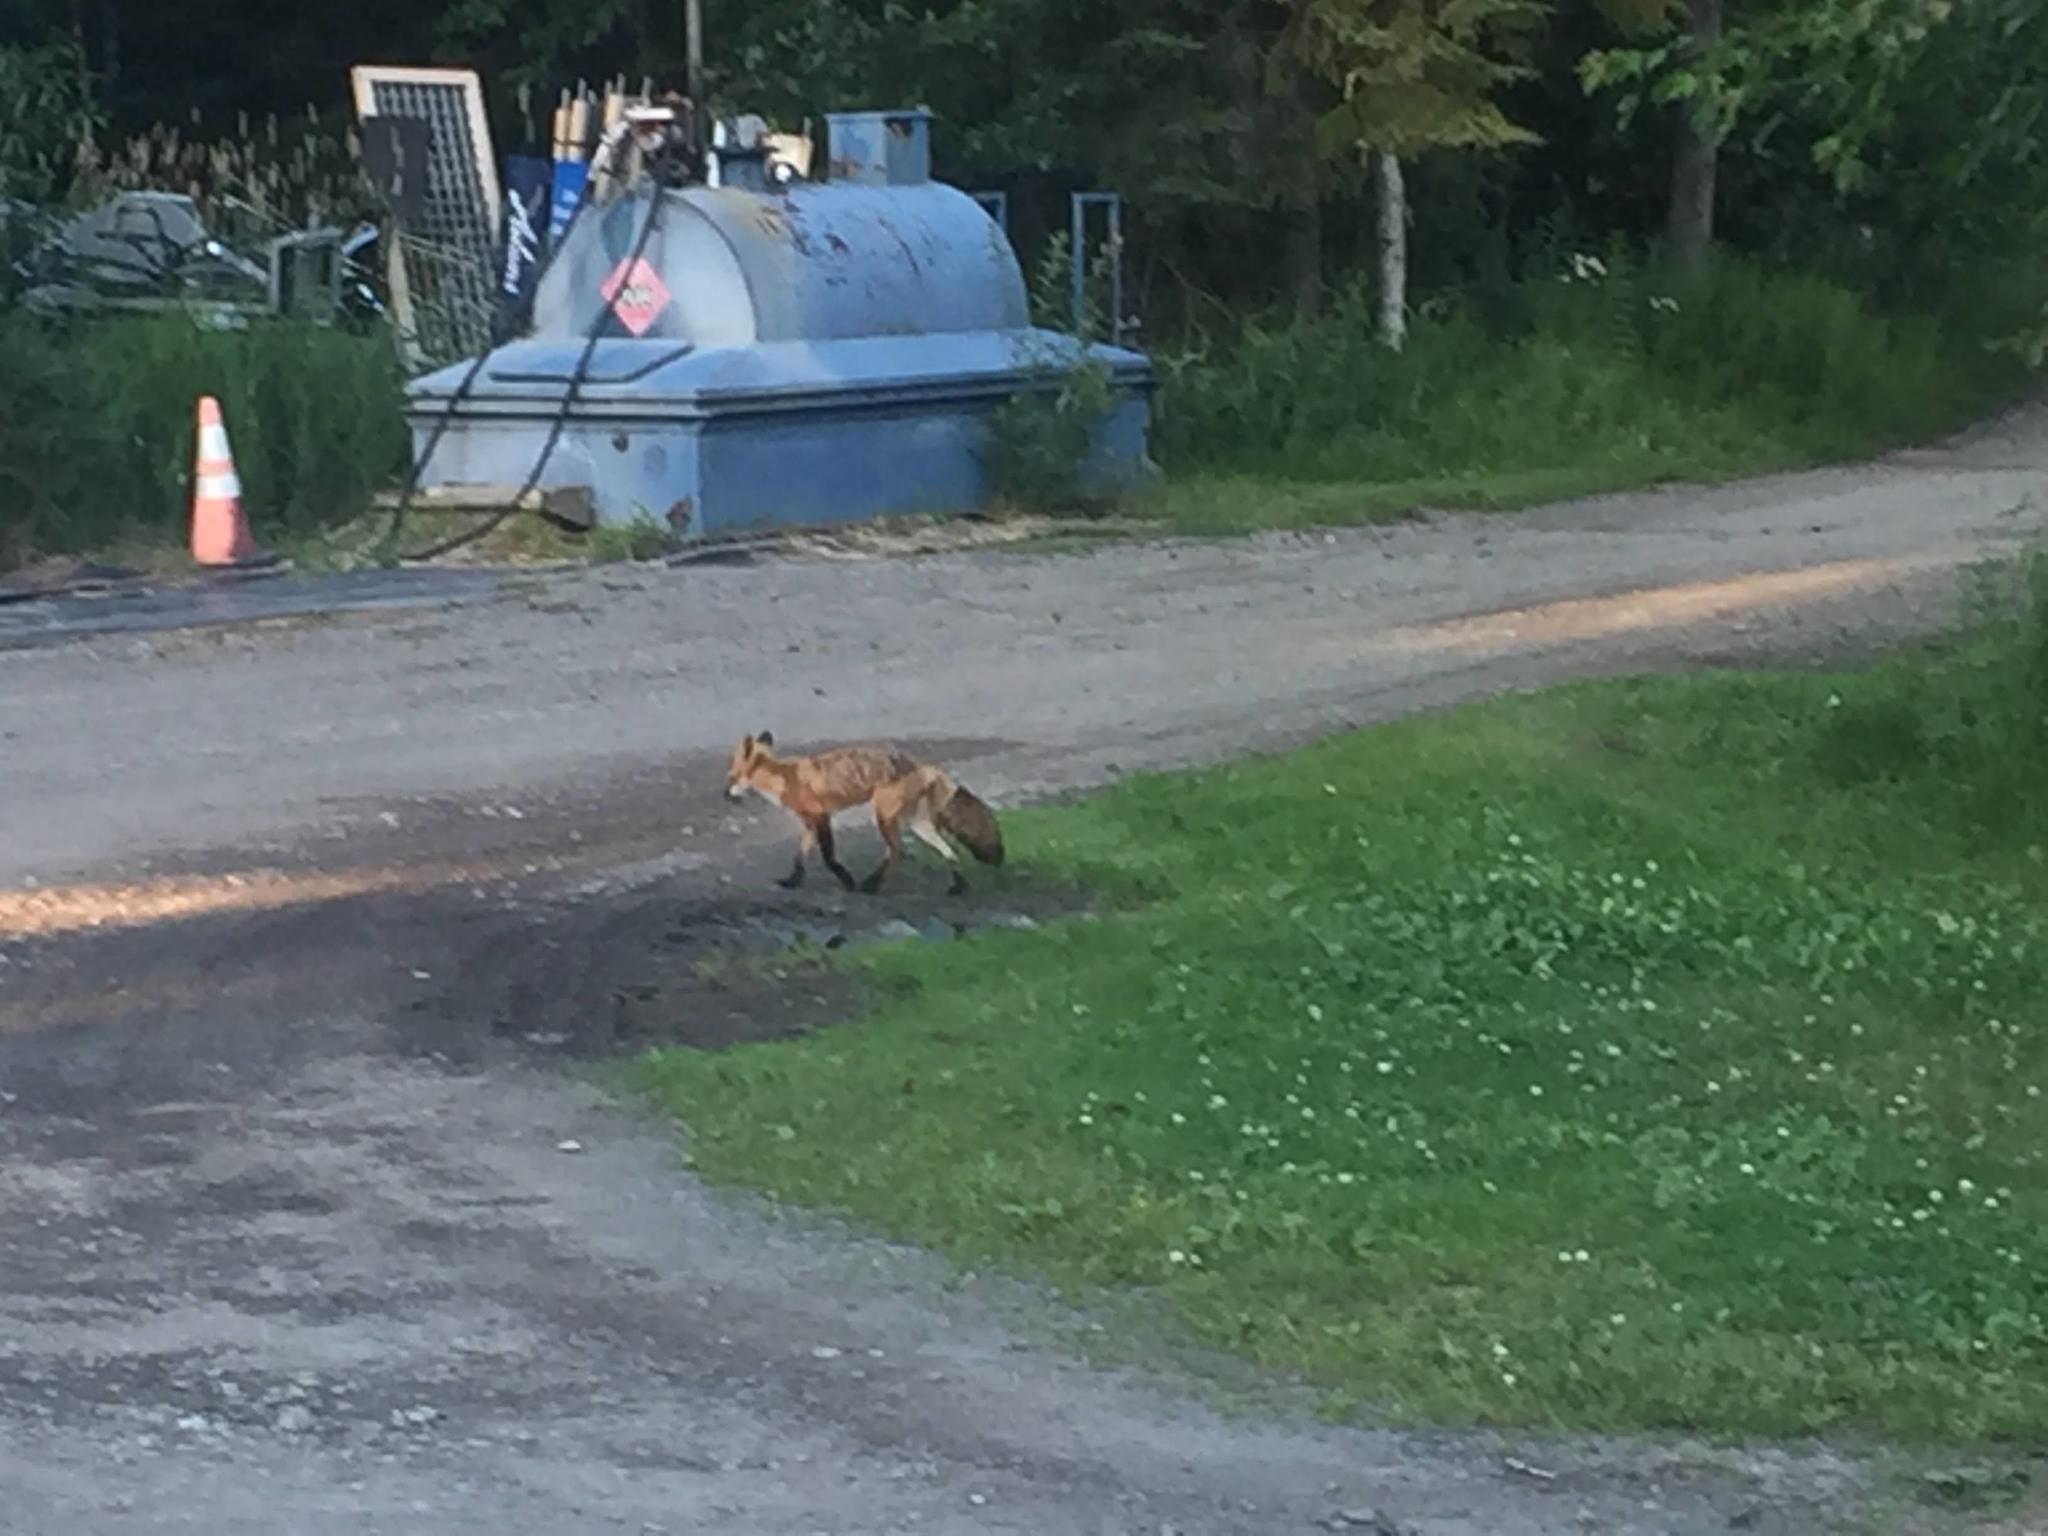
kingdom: Animalia
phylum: Chordata
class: Mammalia
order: Carnivora
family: Canidae
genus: Vulpes
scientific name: Vulpes vulpes
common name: Red fox
